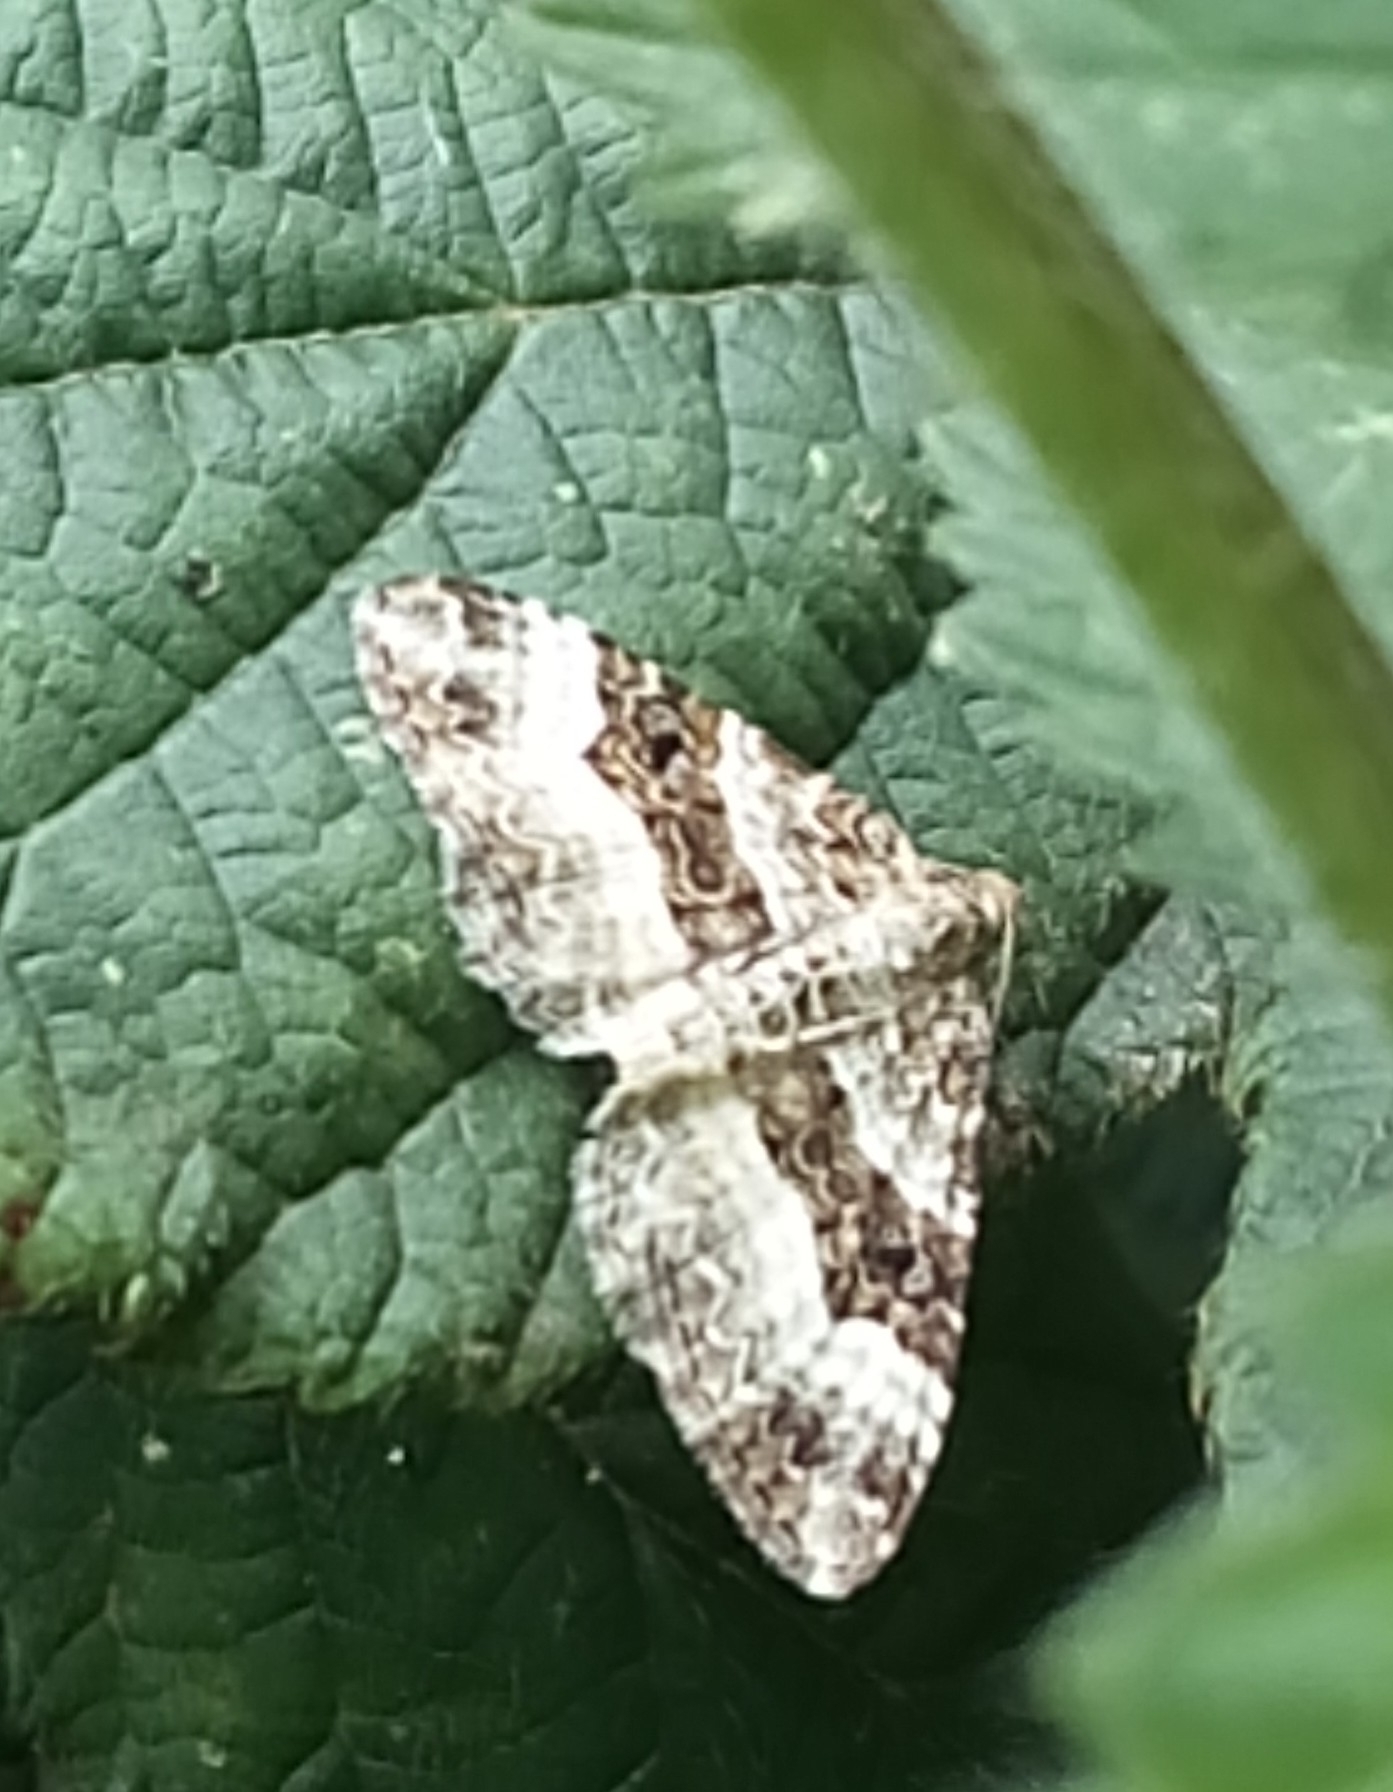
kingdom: Animalia
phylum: Arthropoda
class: Insecta
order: Lepidoptera
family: Geometridae
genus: Epirrhoe
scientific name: Epirrhoe alternata
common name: Common carpet
